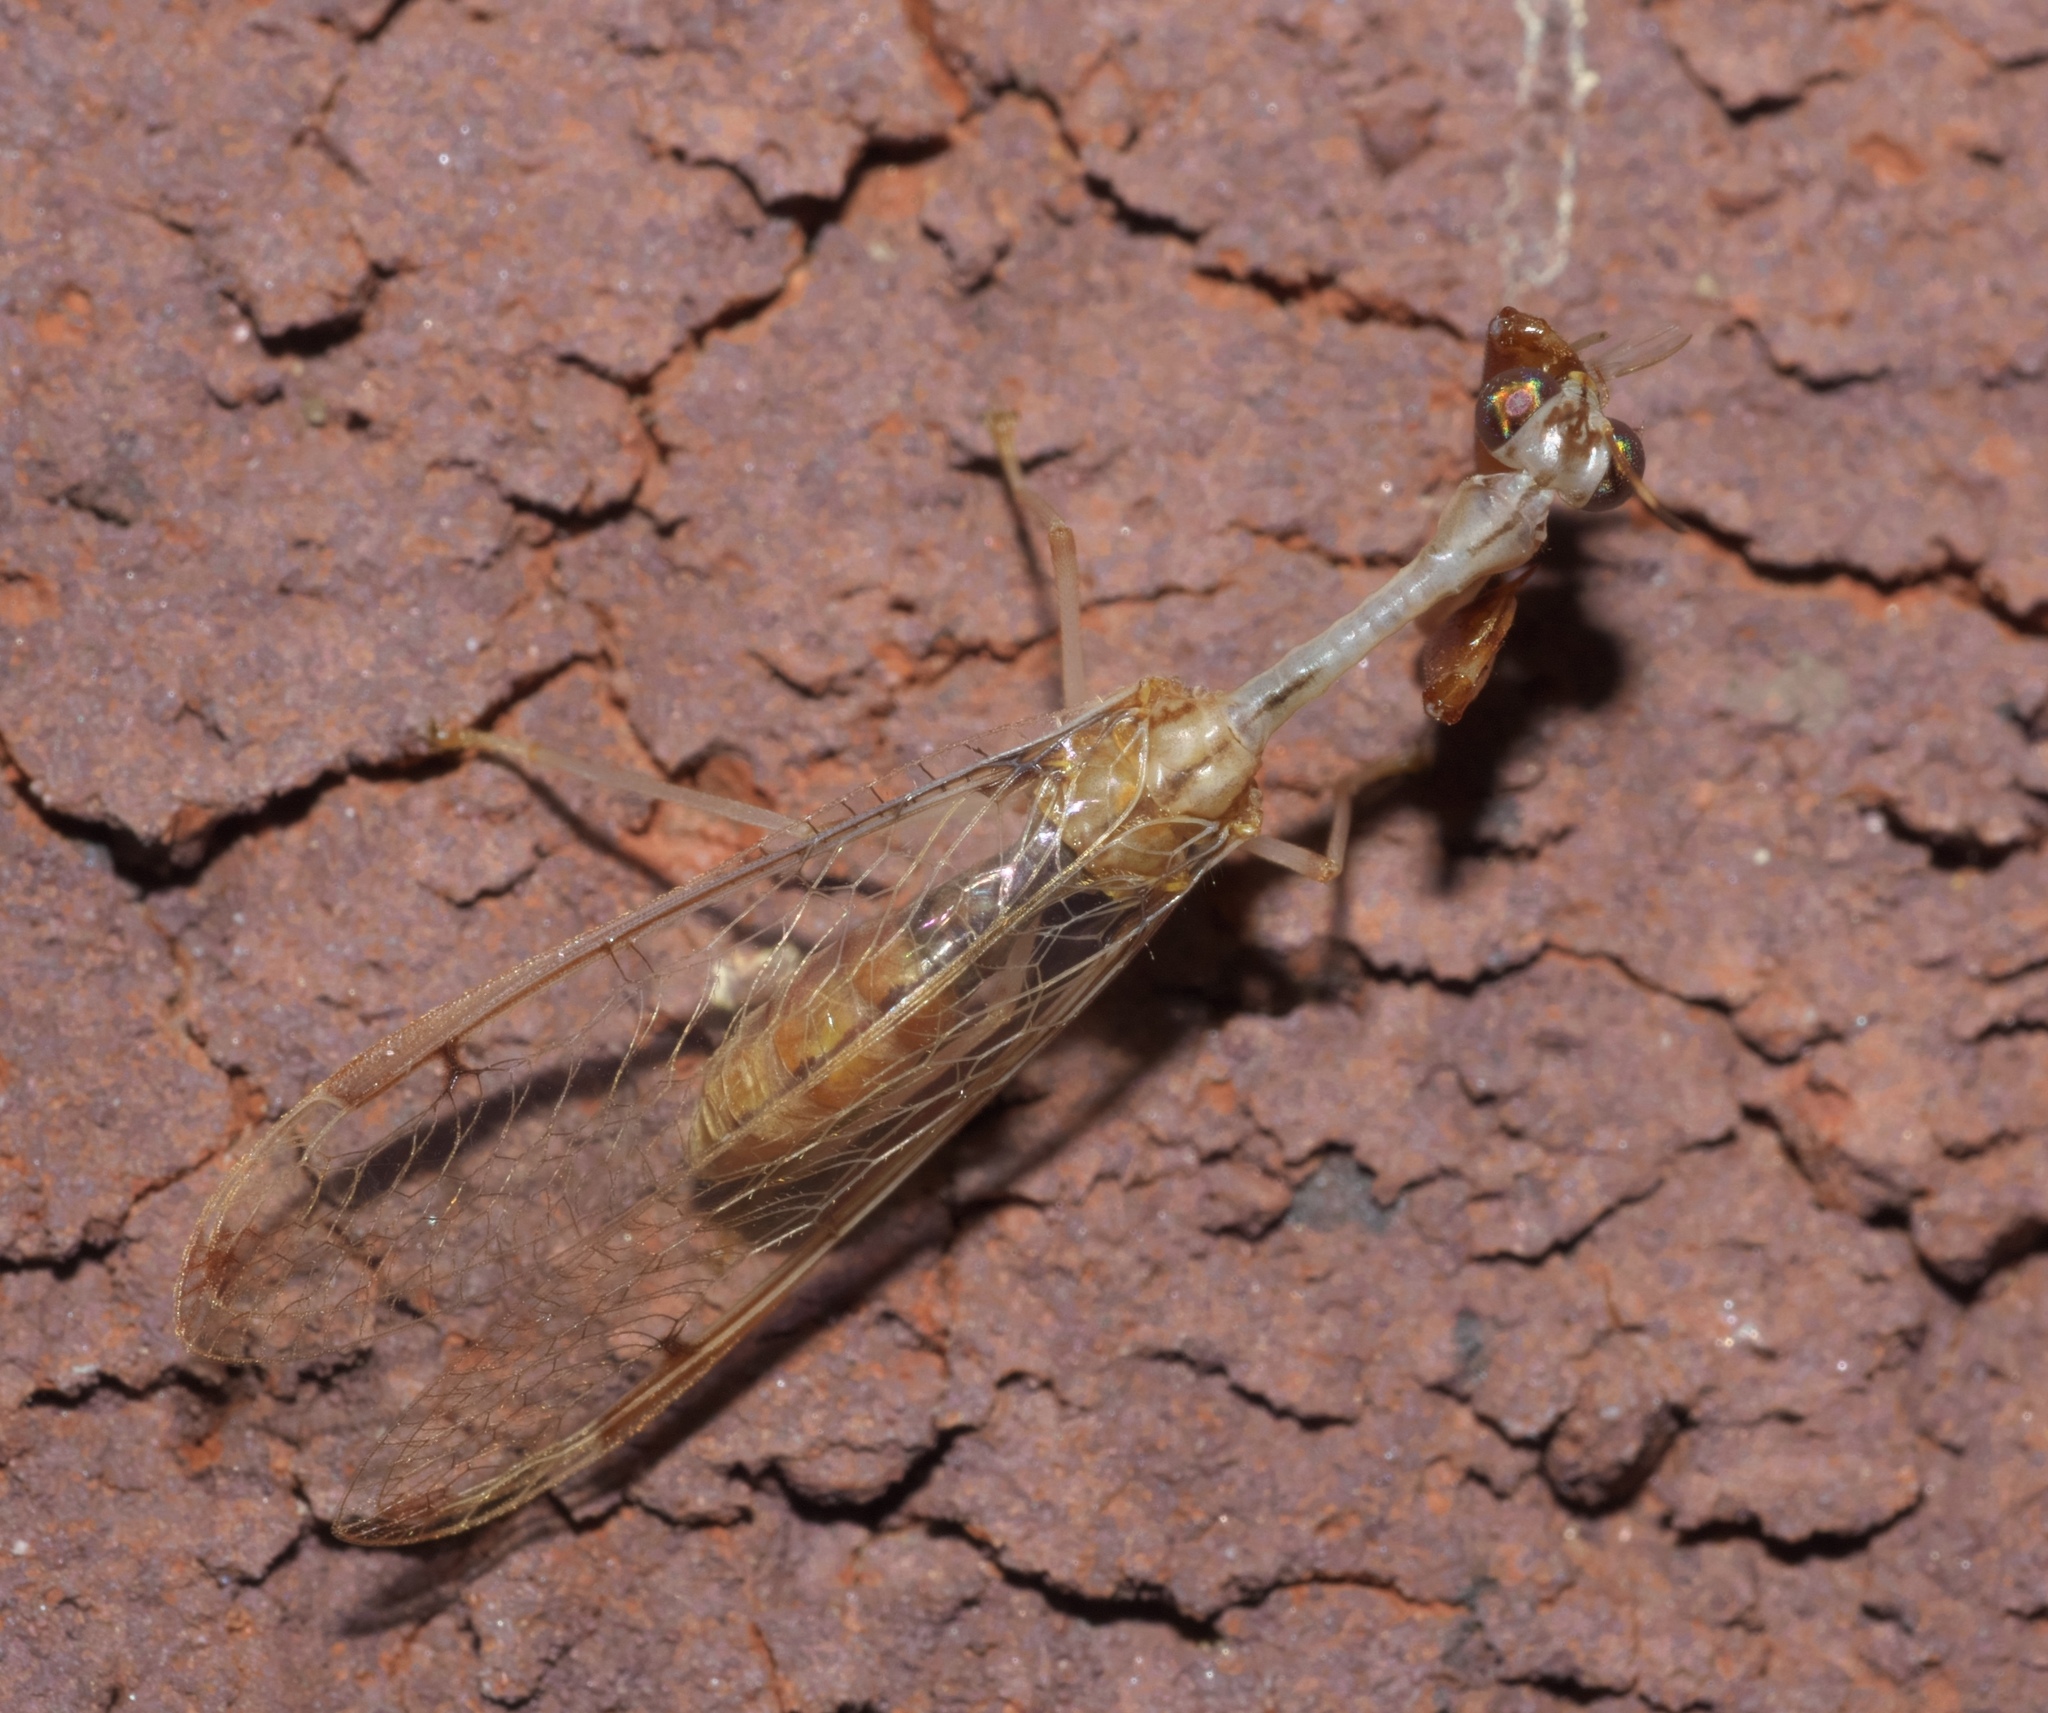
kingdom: Animalia
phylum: Arthropoda
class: Insecta
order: Neuroptera
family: Mantispidae
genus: Dicromantispa
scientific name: Dicromantispa interrupta
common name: Four-spotted mantidfly
